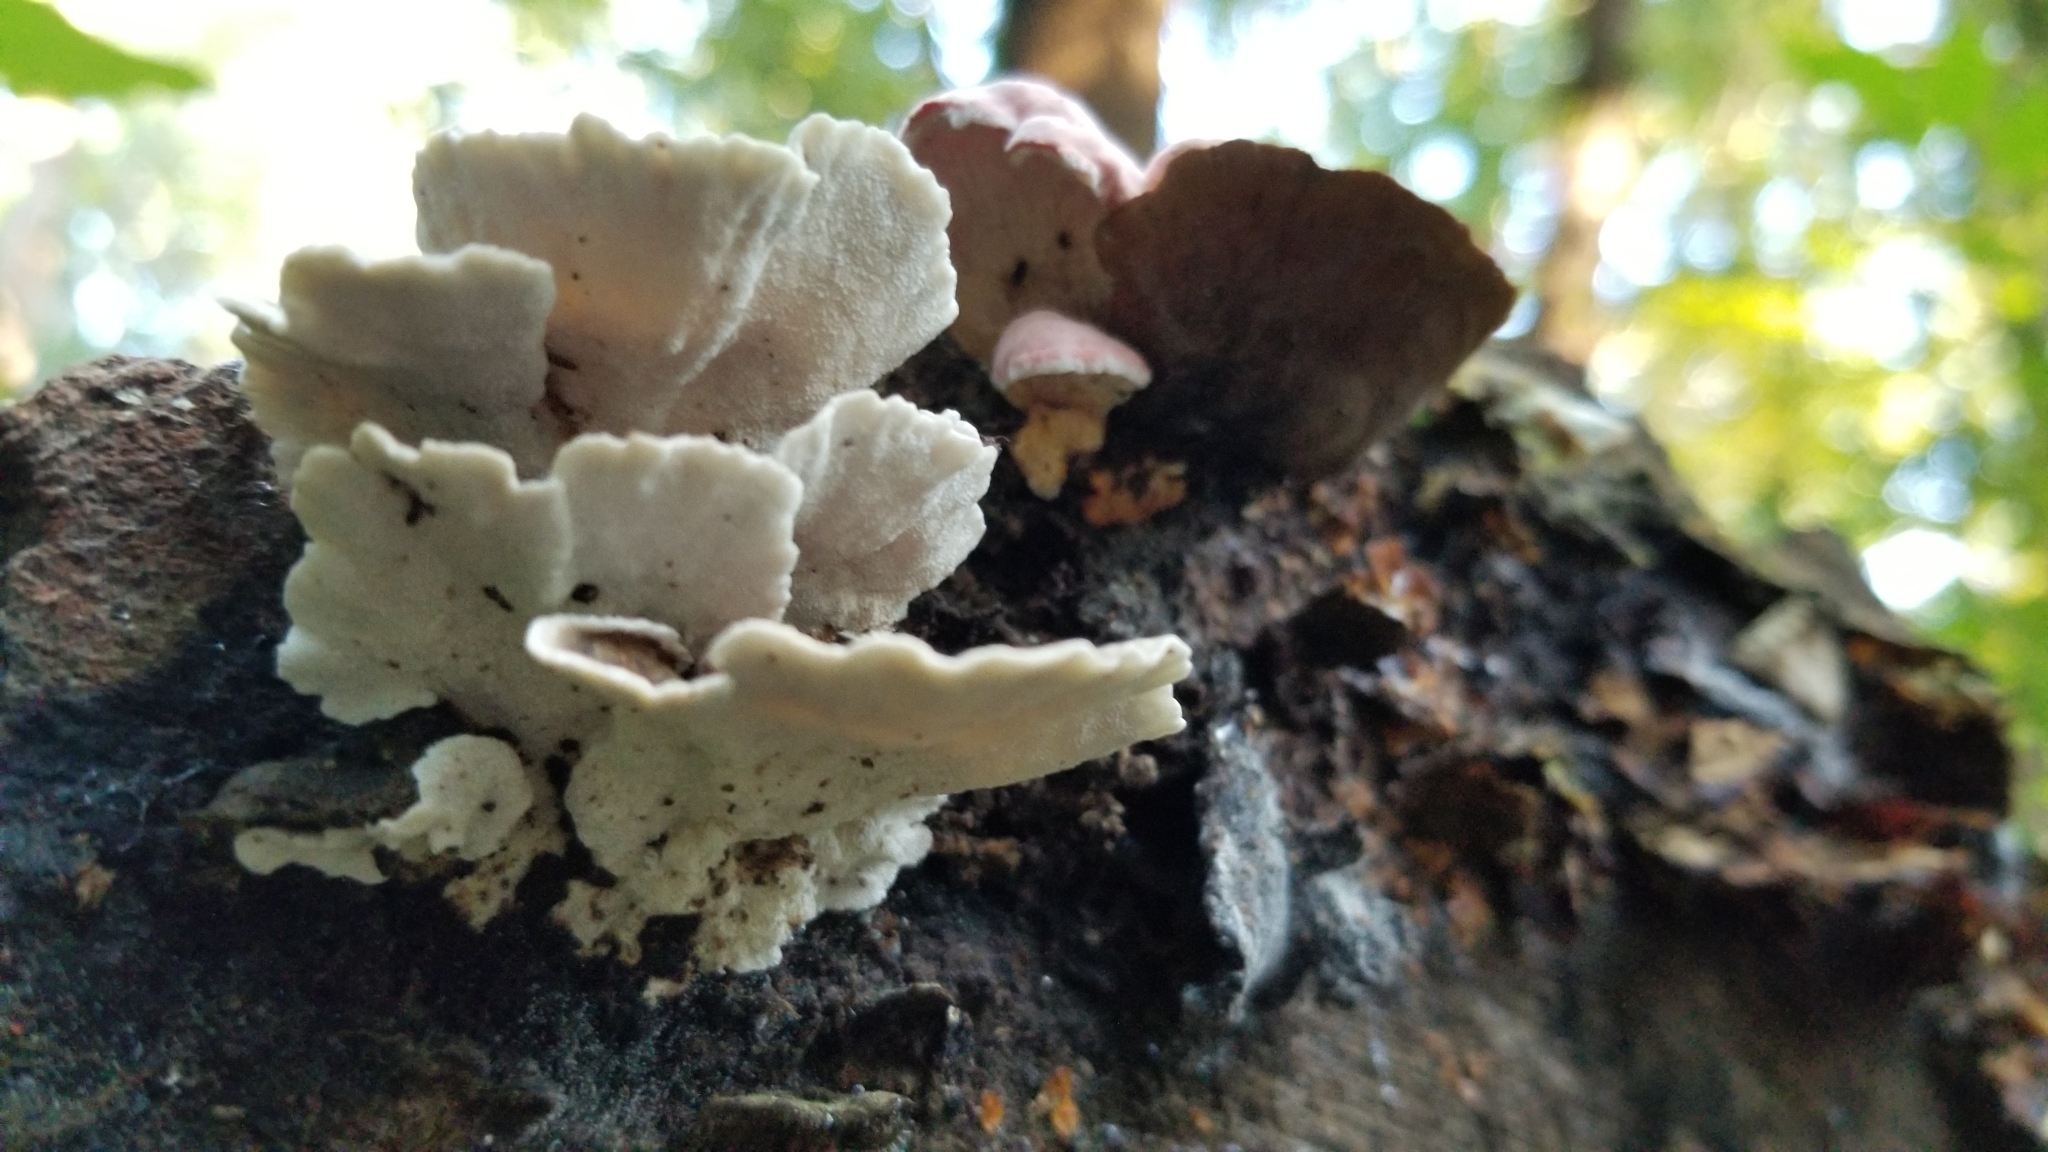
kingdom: Fungi
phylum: Basidiomycota
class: Agaricomycetes
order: Polyporales
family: Irpicaceae
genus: Byssomerulius
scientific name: Byssomerulius incarnatus
